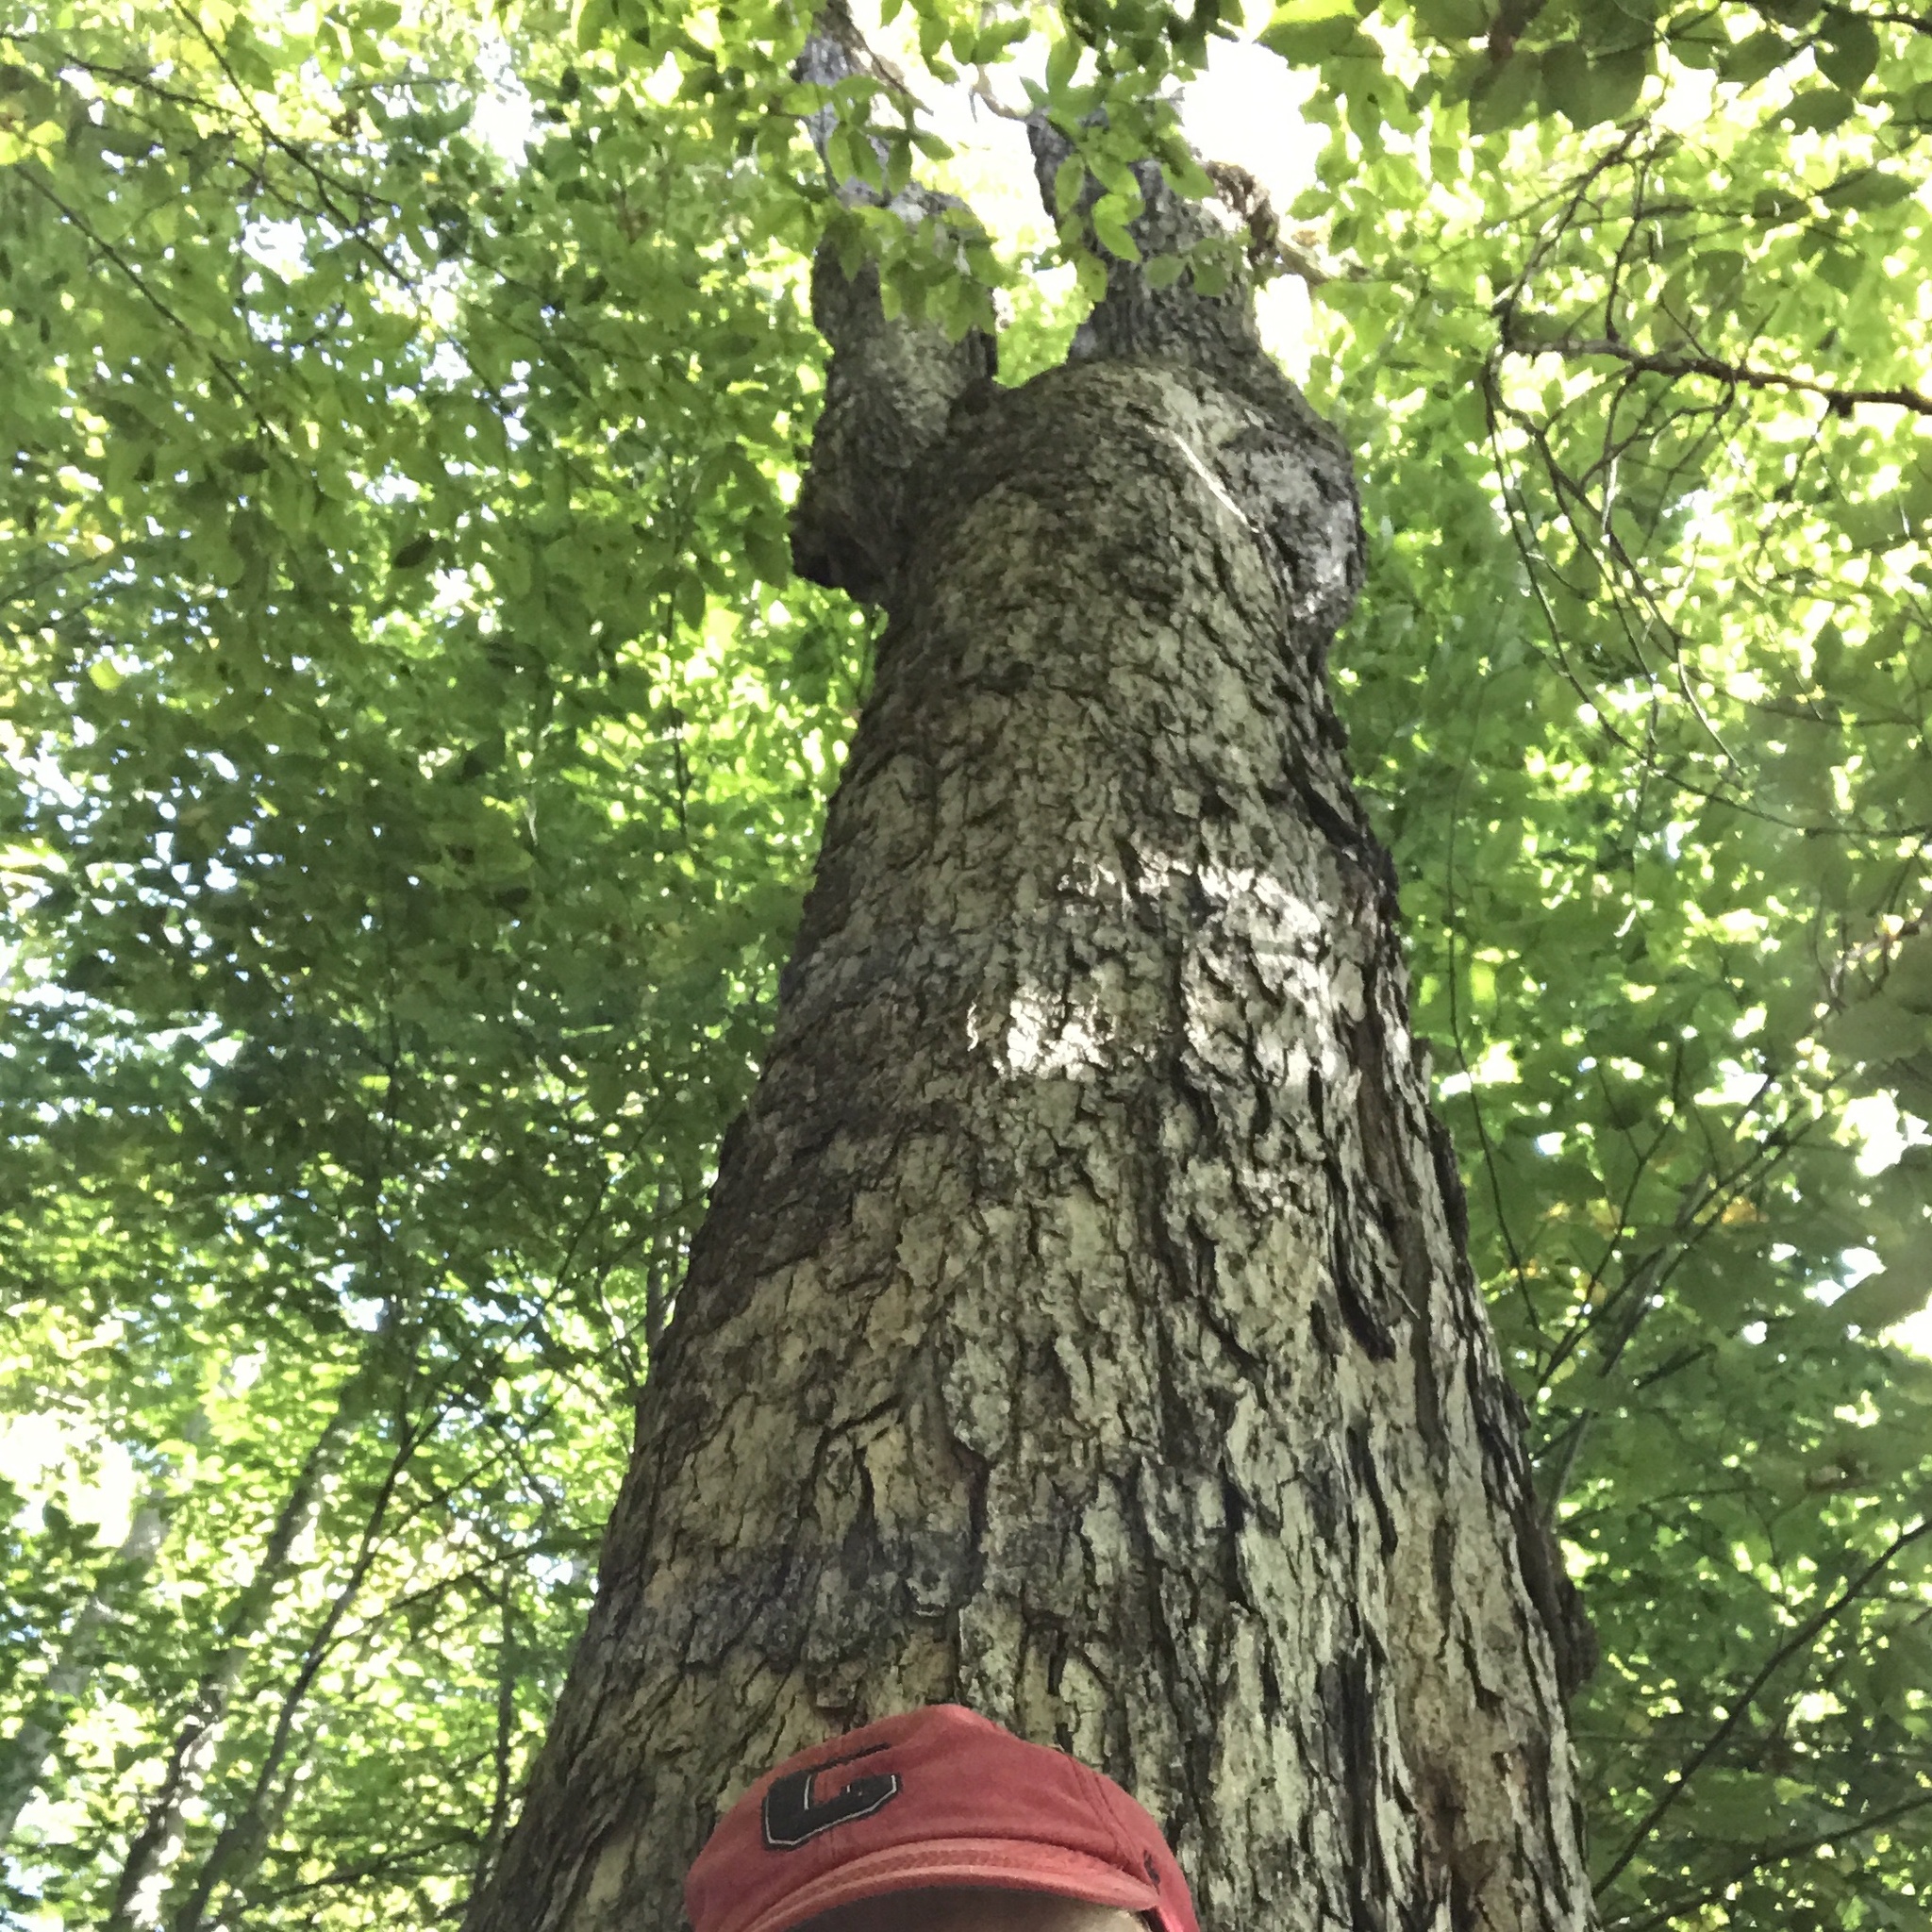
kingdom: Plantae
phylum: Tracheophyta
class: Magnoliopsida
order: Sapindales
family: Sapindaceae
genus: Acer
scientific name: Acer saccharum
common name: Sugar maple
